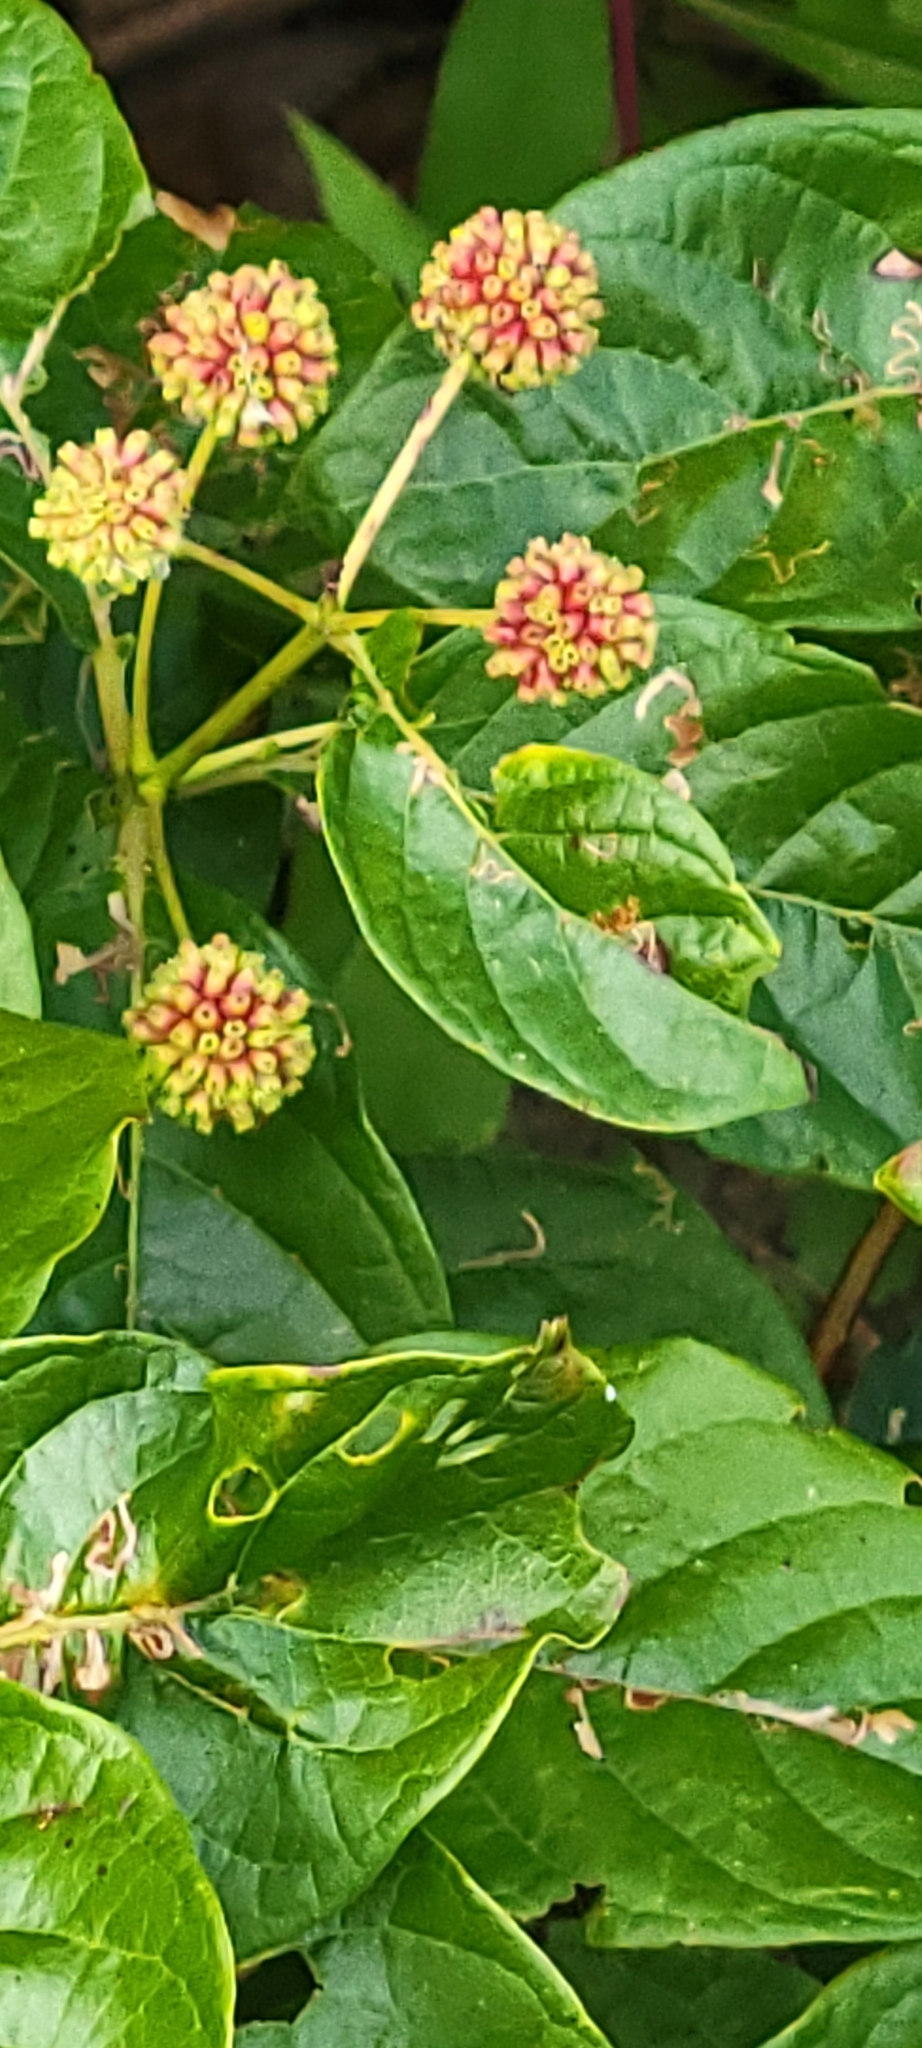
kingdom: Plantae
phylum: Tracheophyta
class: Magnoliopsida
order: Gentianales
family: Rubiaceae
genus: Cephalanthus
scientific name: Cephalanthus occidentalis
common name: Button-willow
